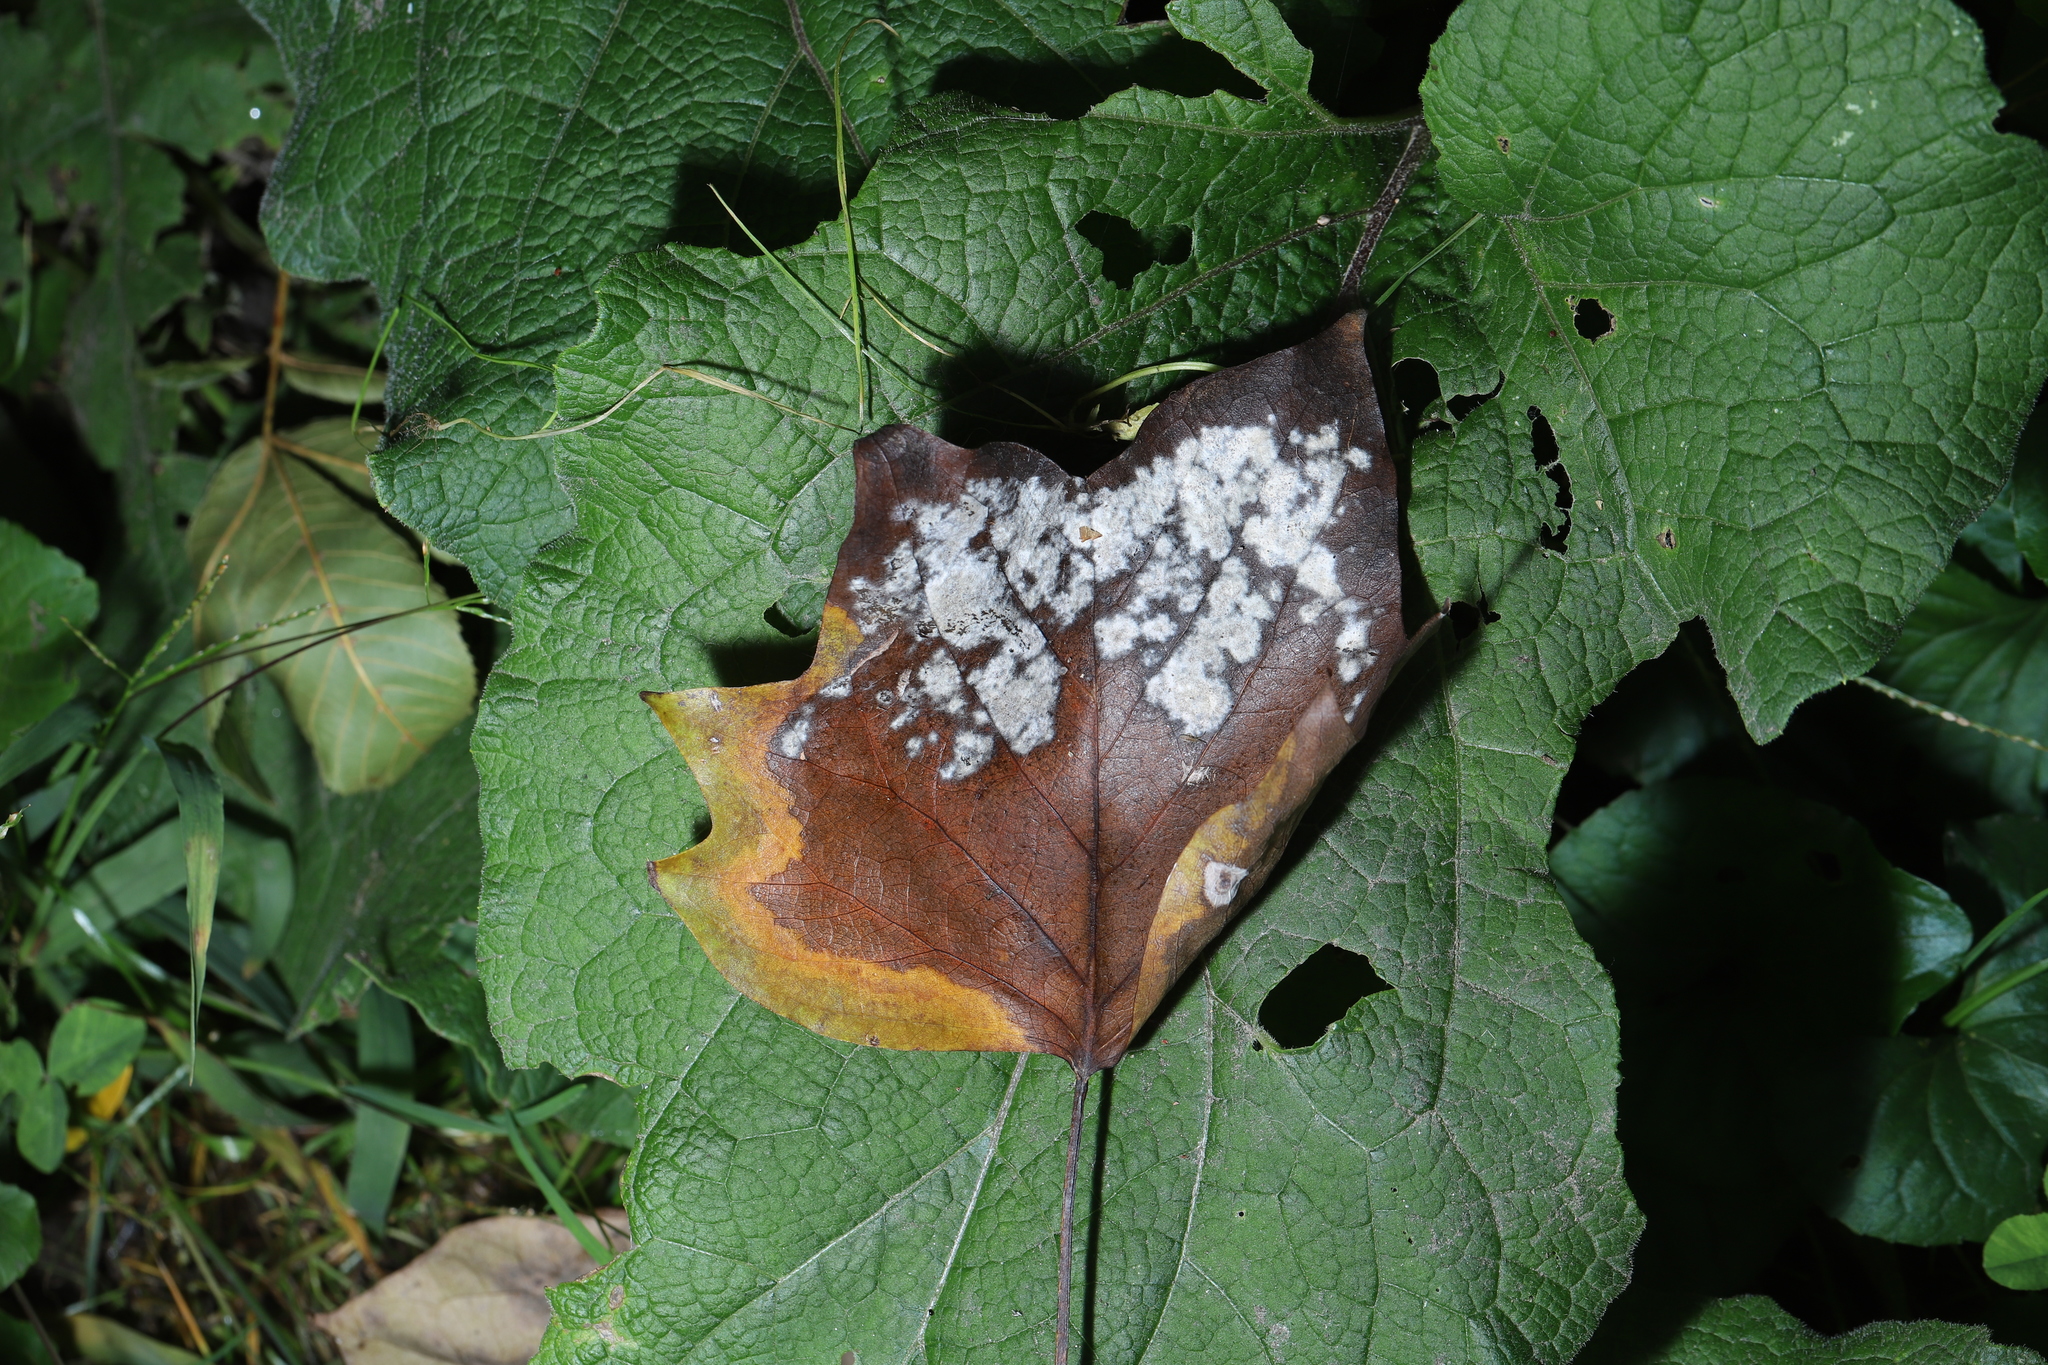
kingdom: Fungi
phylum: Ascomycota
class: Leotiomycetes
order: Helotiales
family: Erysiphaceae
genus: Erysiphe
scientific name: Erysiphe liriodendri
